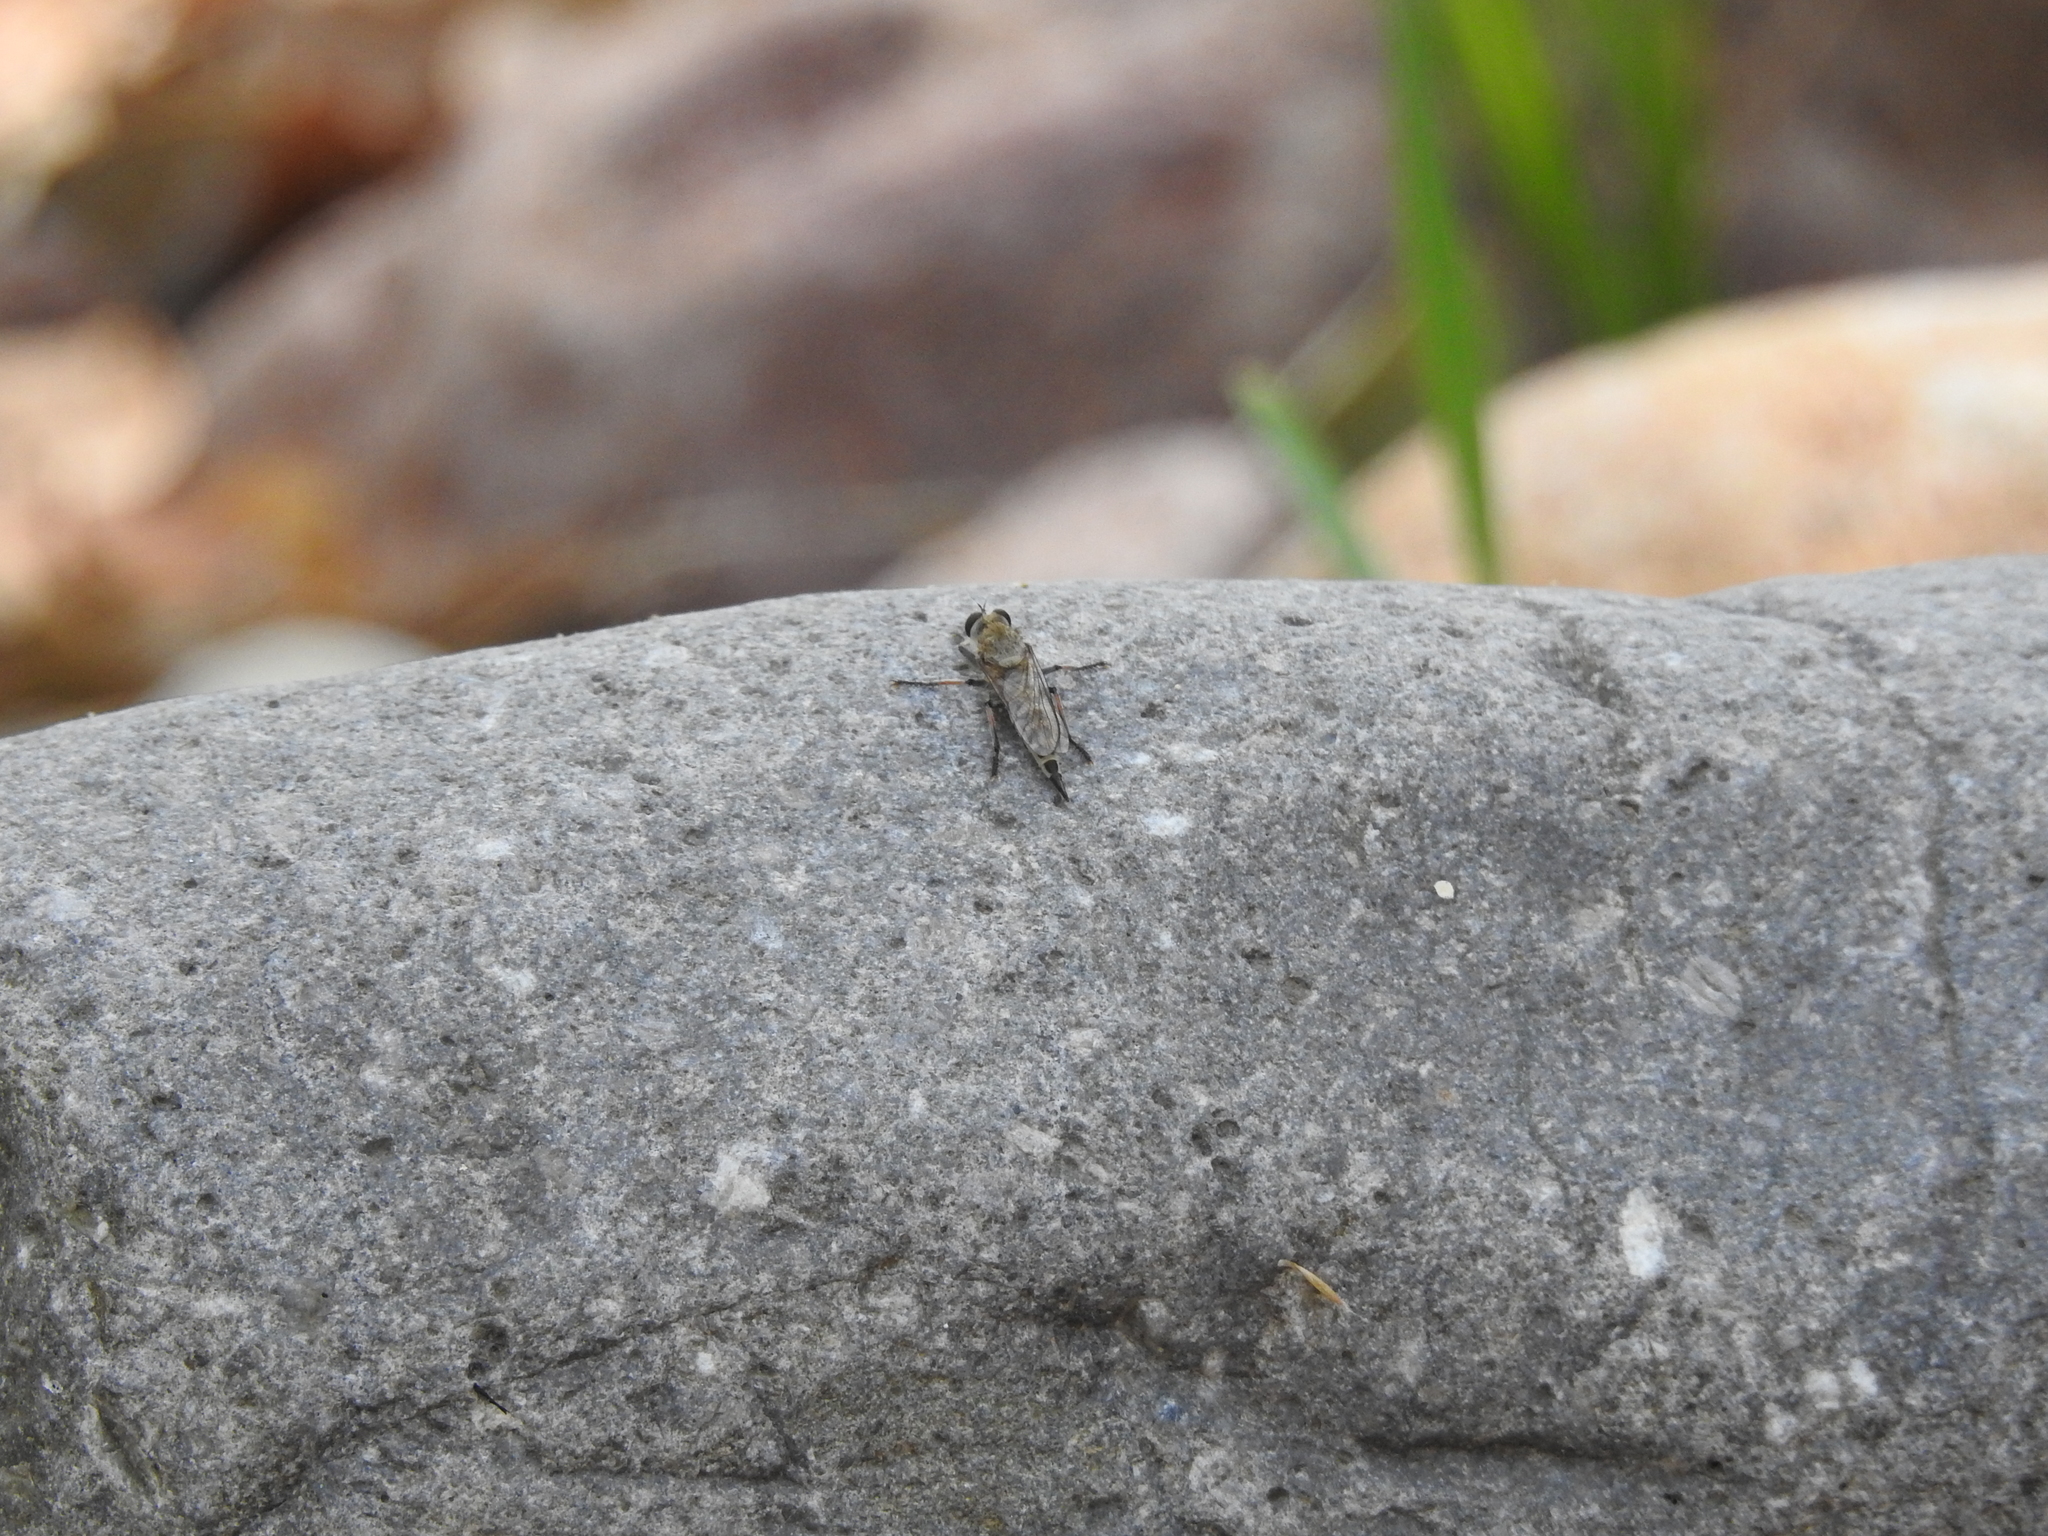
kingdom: Animalia
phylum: Arthropoda
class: Insecta
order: Diptera
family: Asilidae
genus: Efferia
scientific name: Efferia albibarbis
